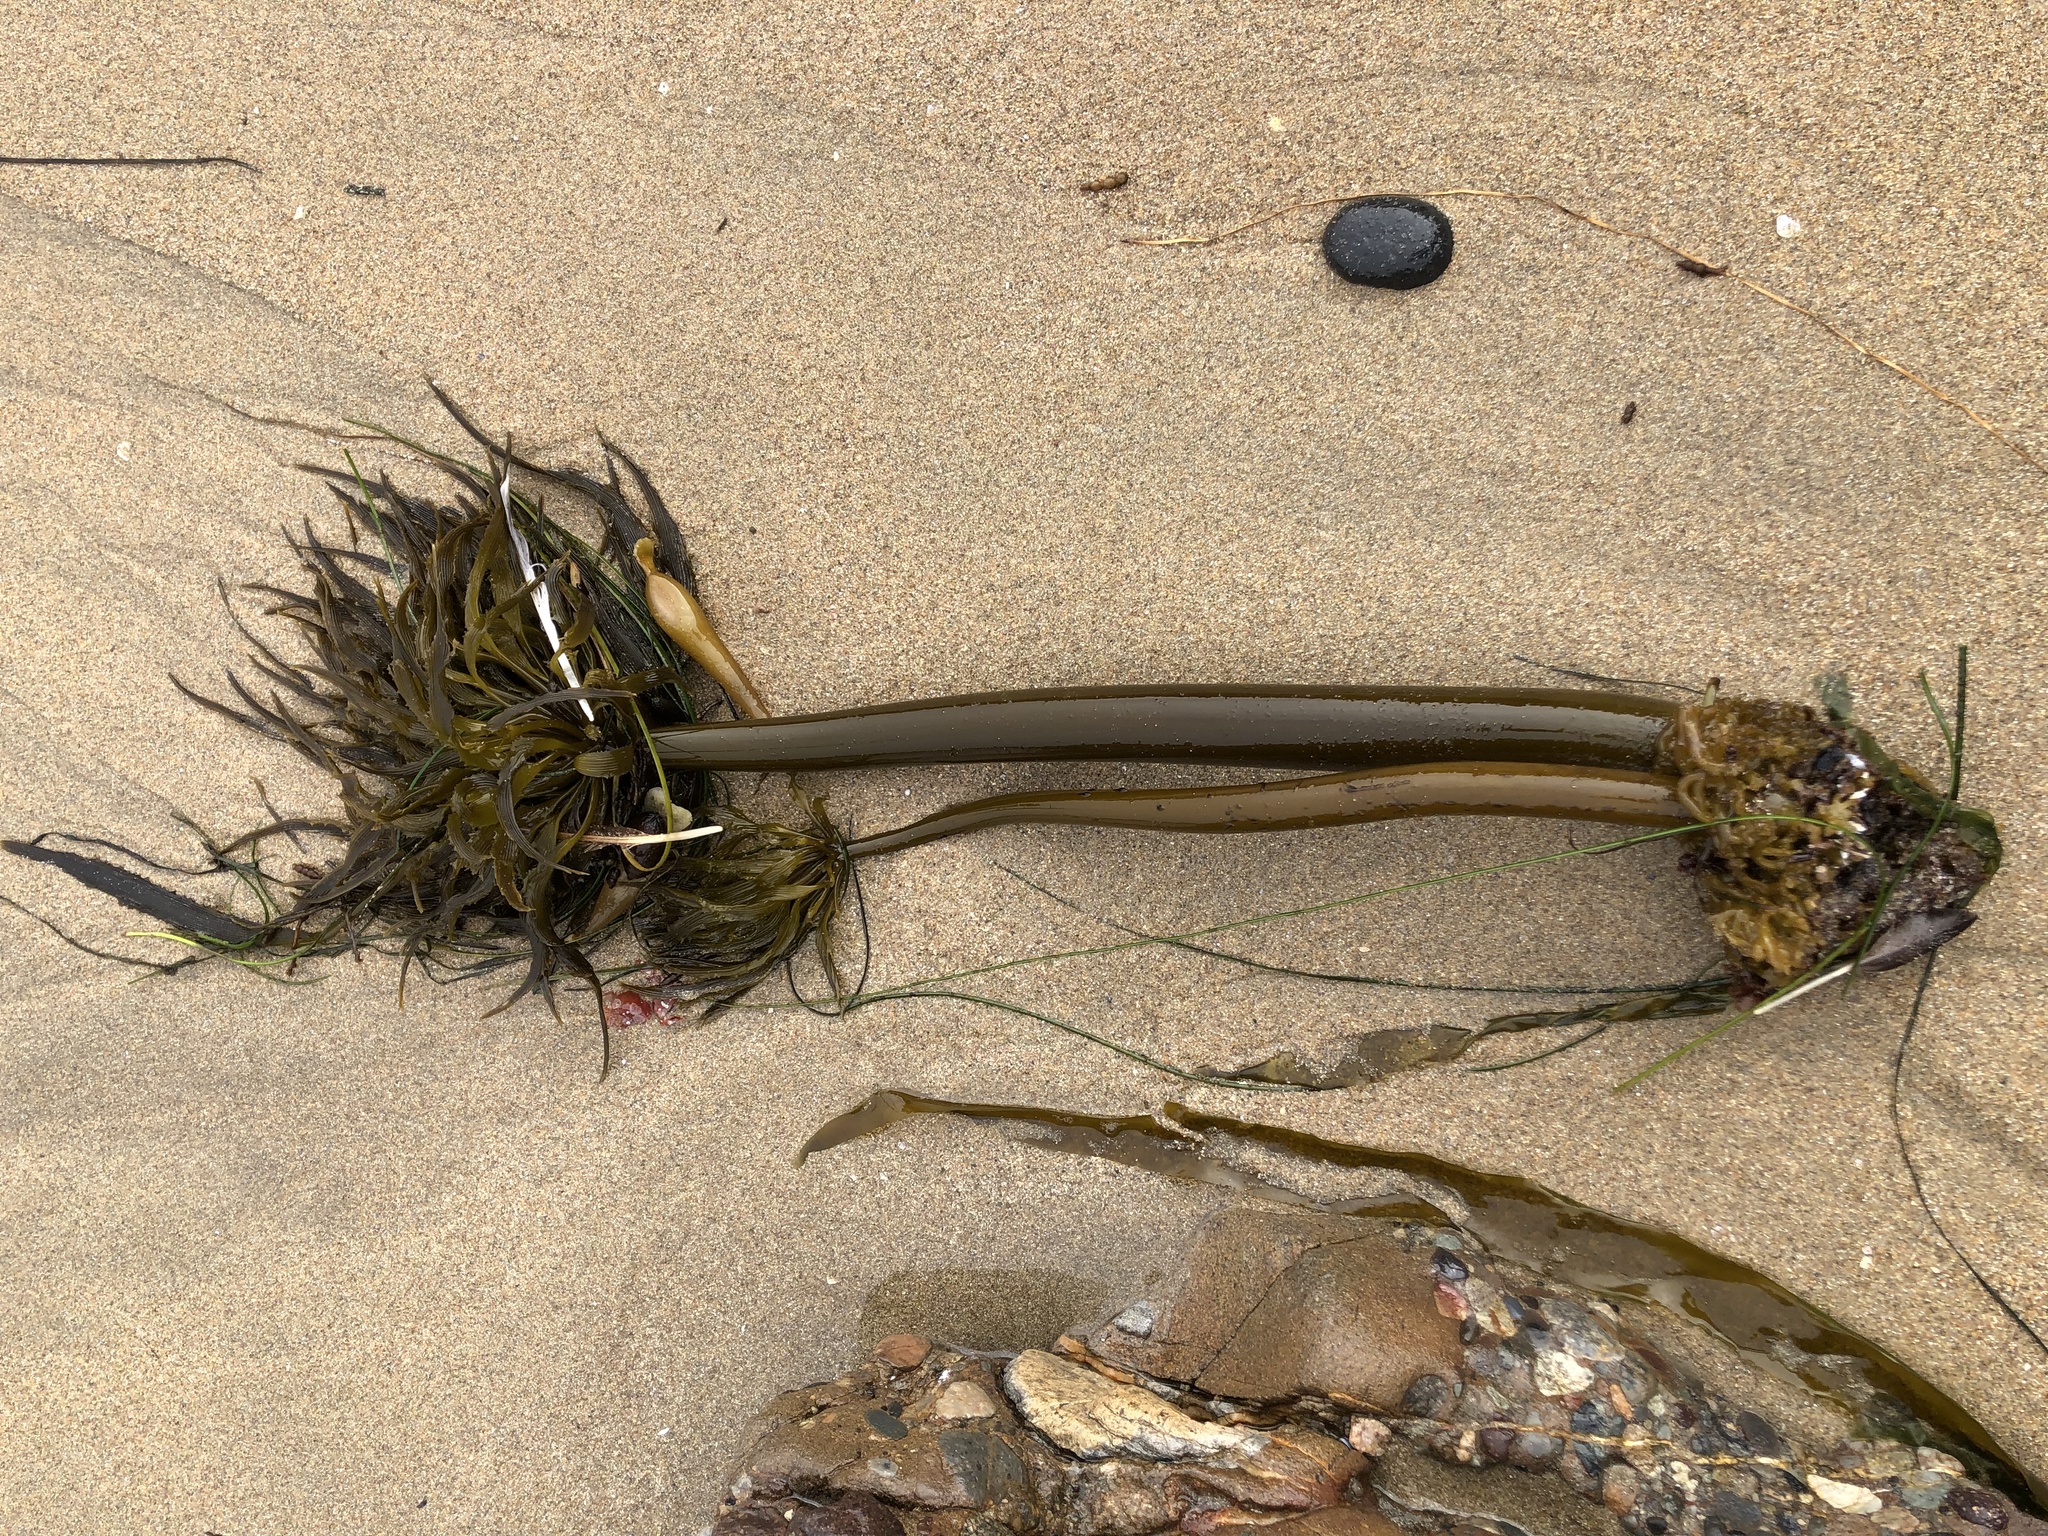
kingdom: Chromista
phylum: Ochrophyta
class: Phaeophyceae
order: Laminariales
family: Laminariaceae
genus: Postelsia
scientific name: Postelsia palmiformis
